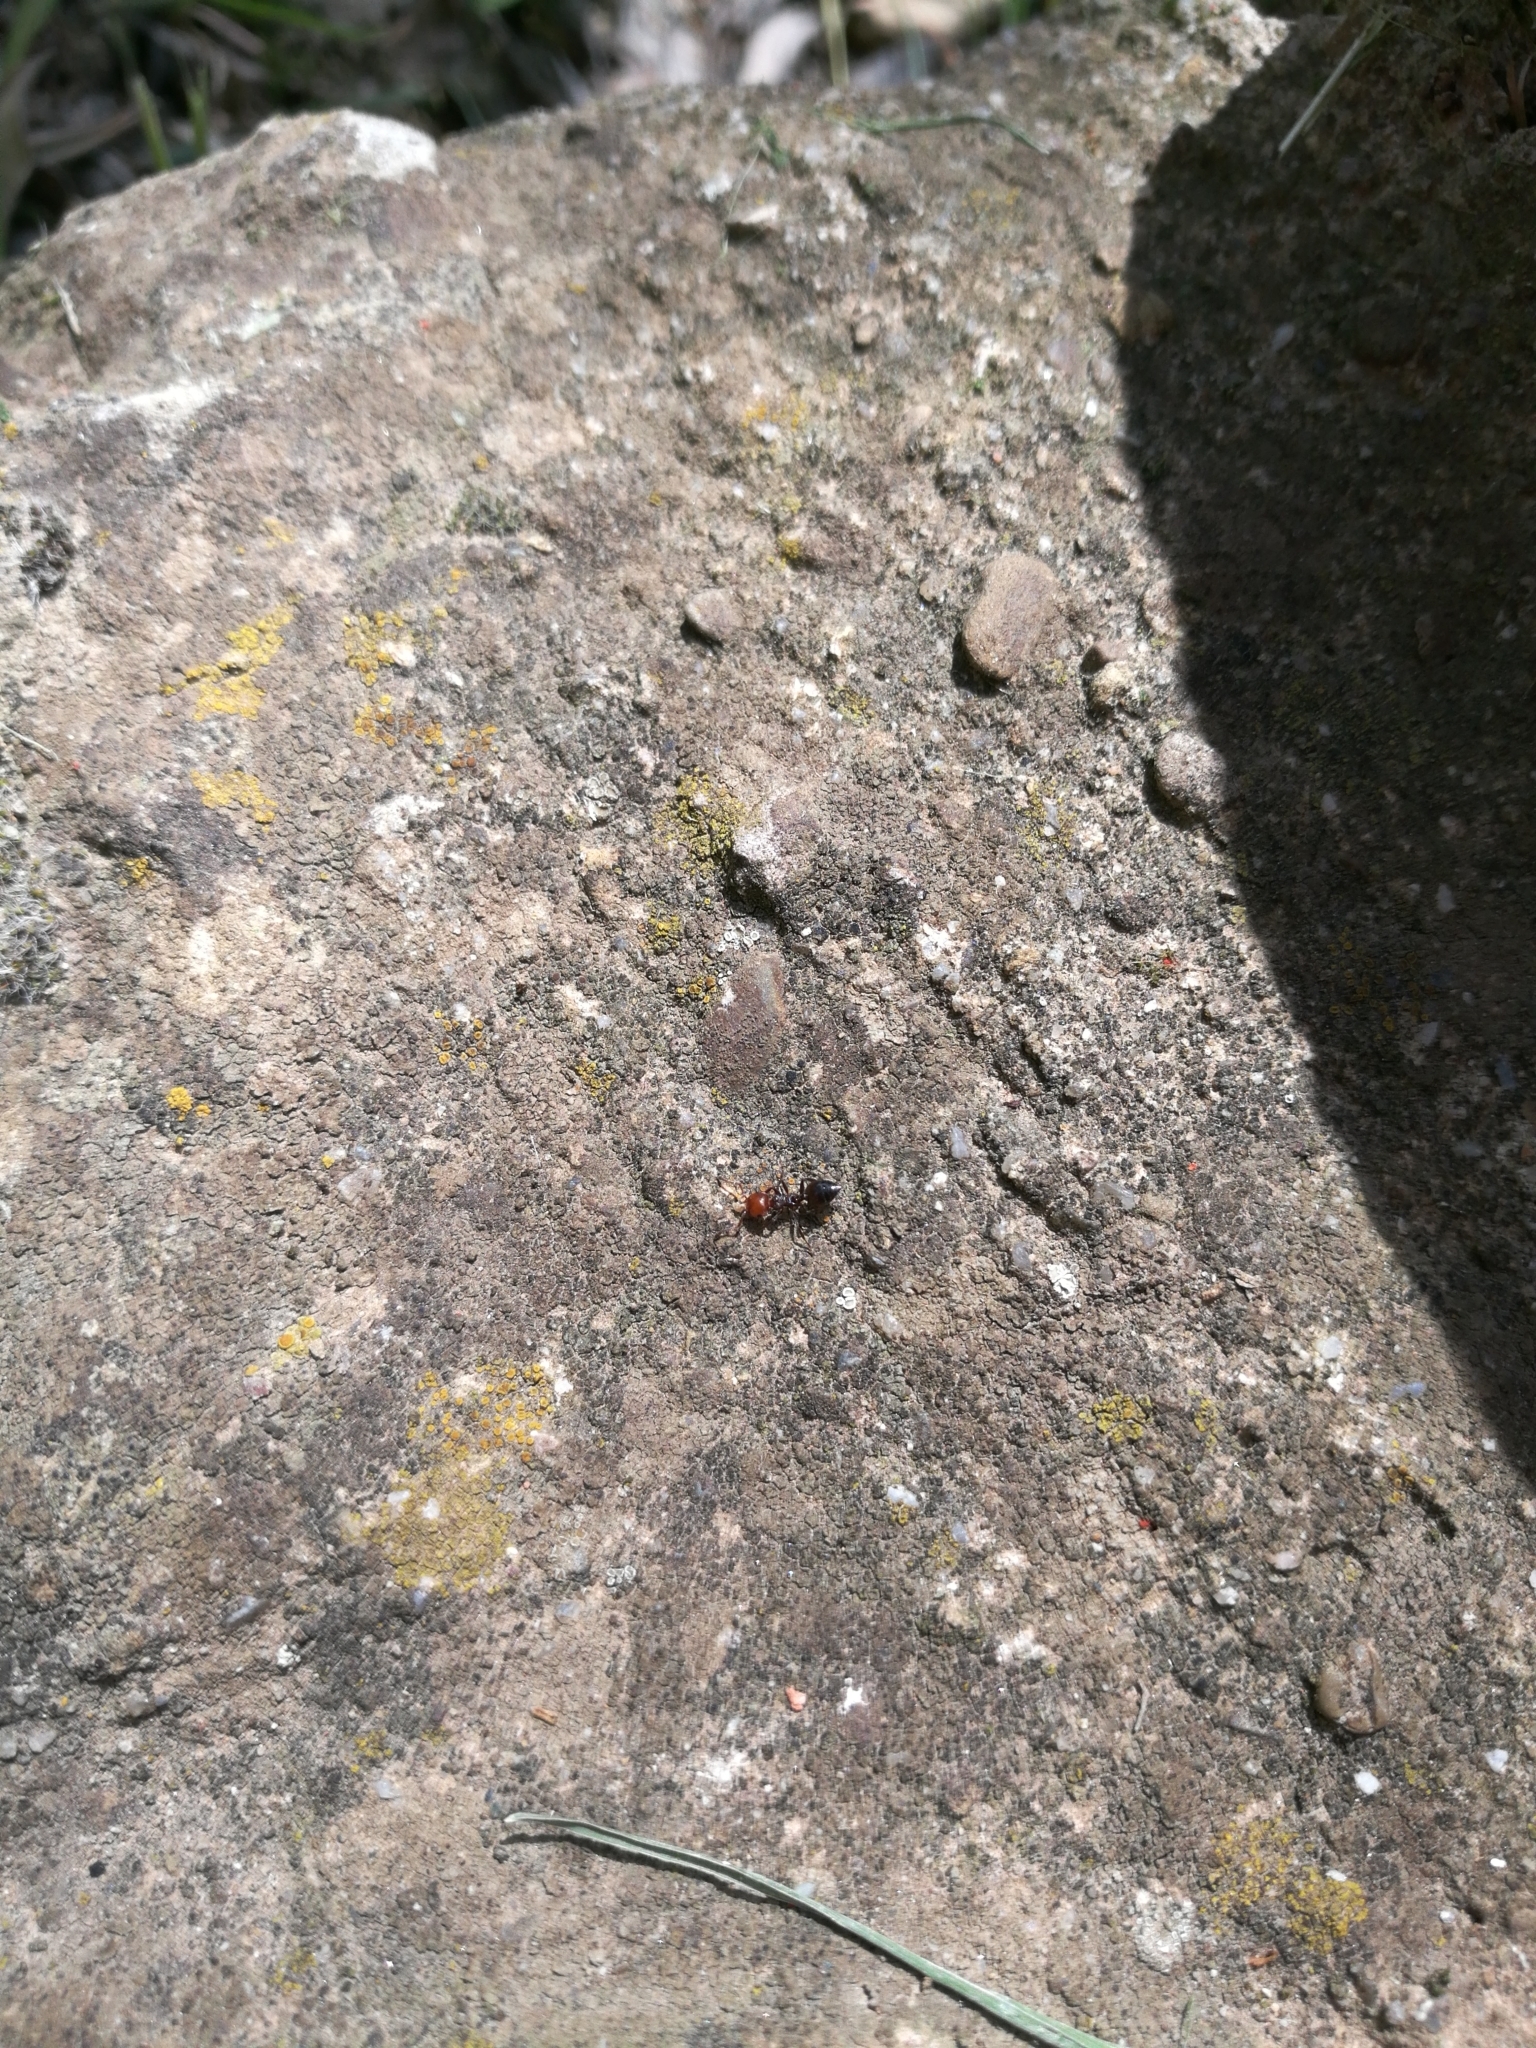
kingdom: Animalia
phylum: Arthropoda
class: Insecta
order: Hymenoptera
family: Formicidae
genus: Crematogaster
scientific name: Crematogaster scutellaris
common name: Fourmi du liège
